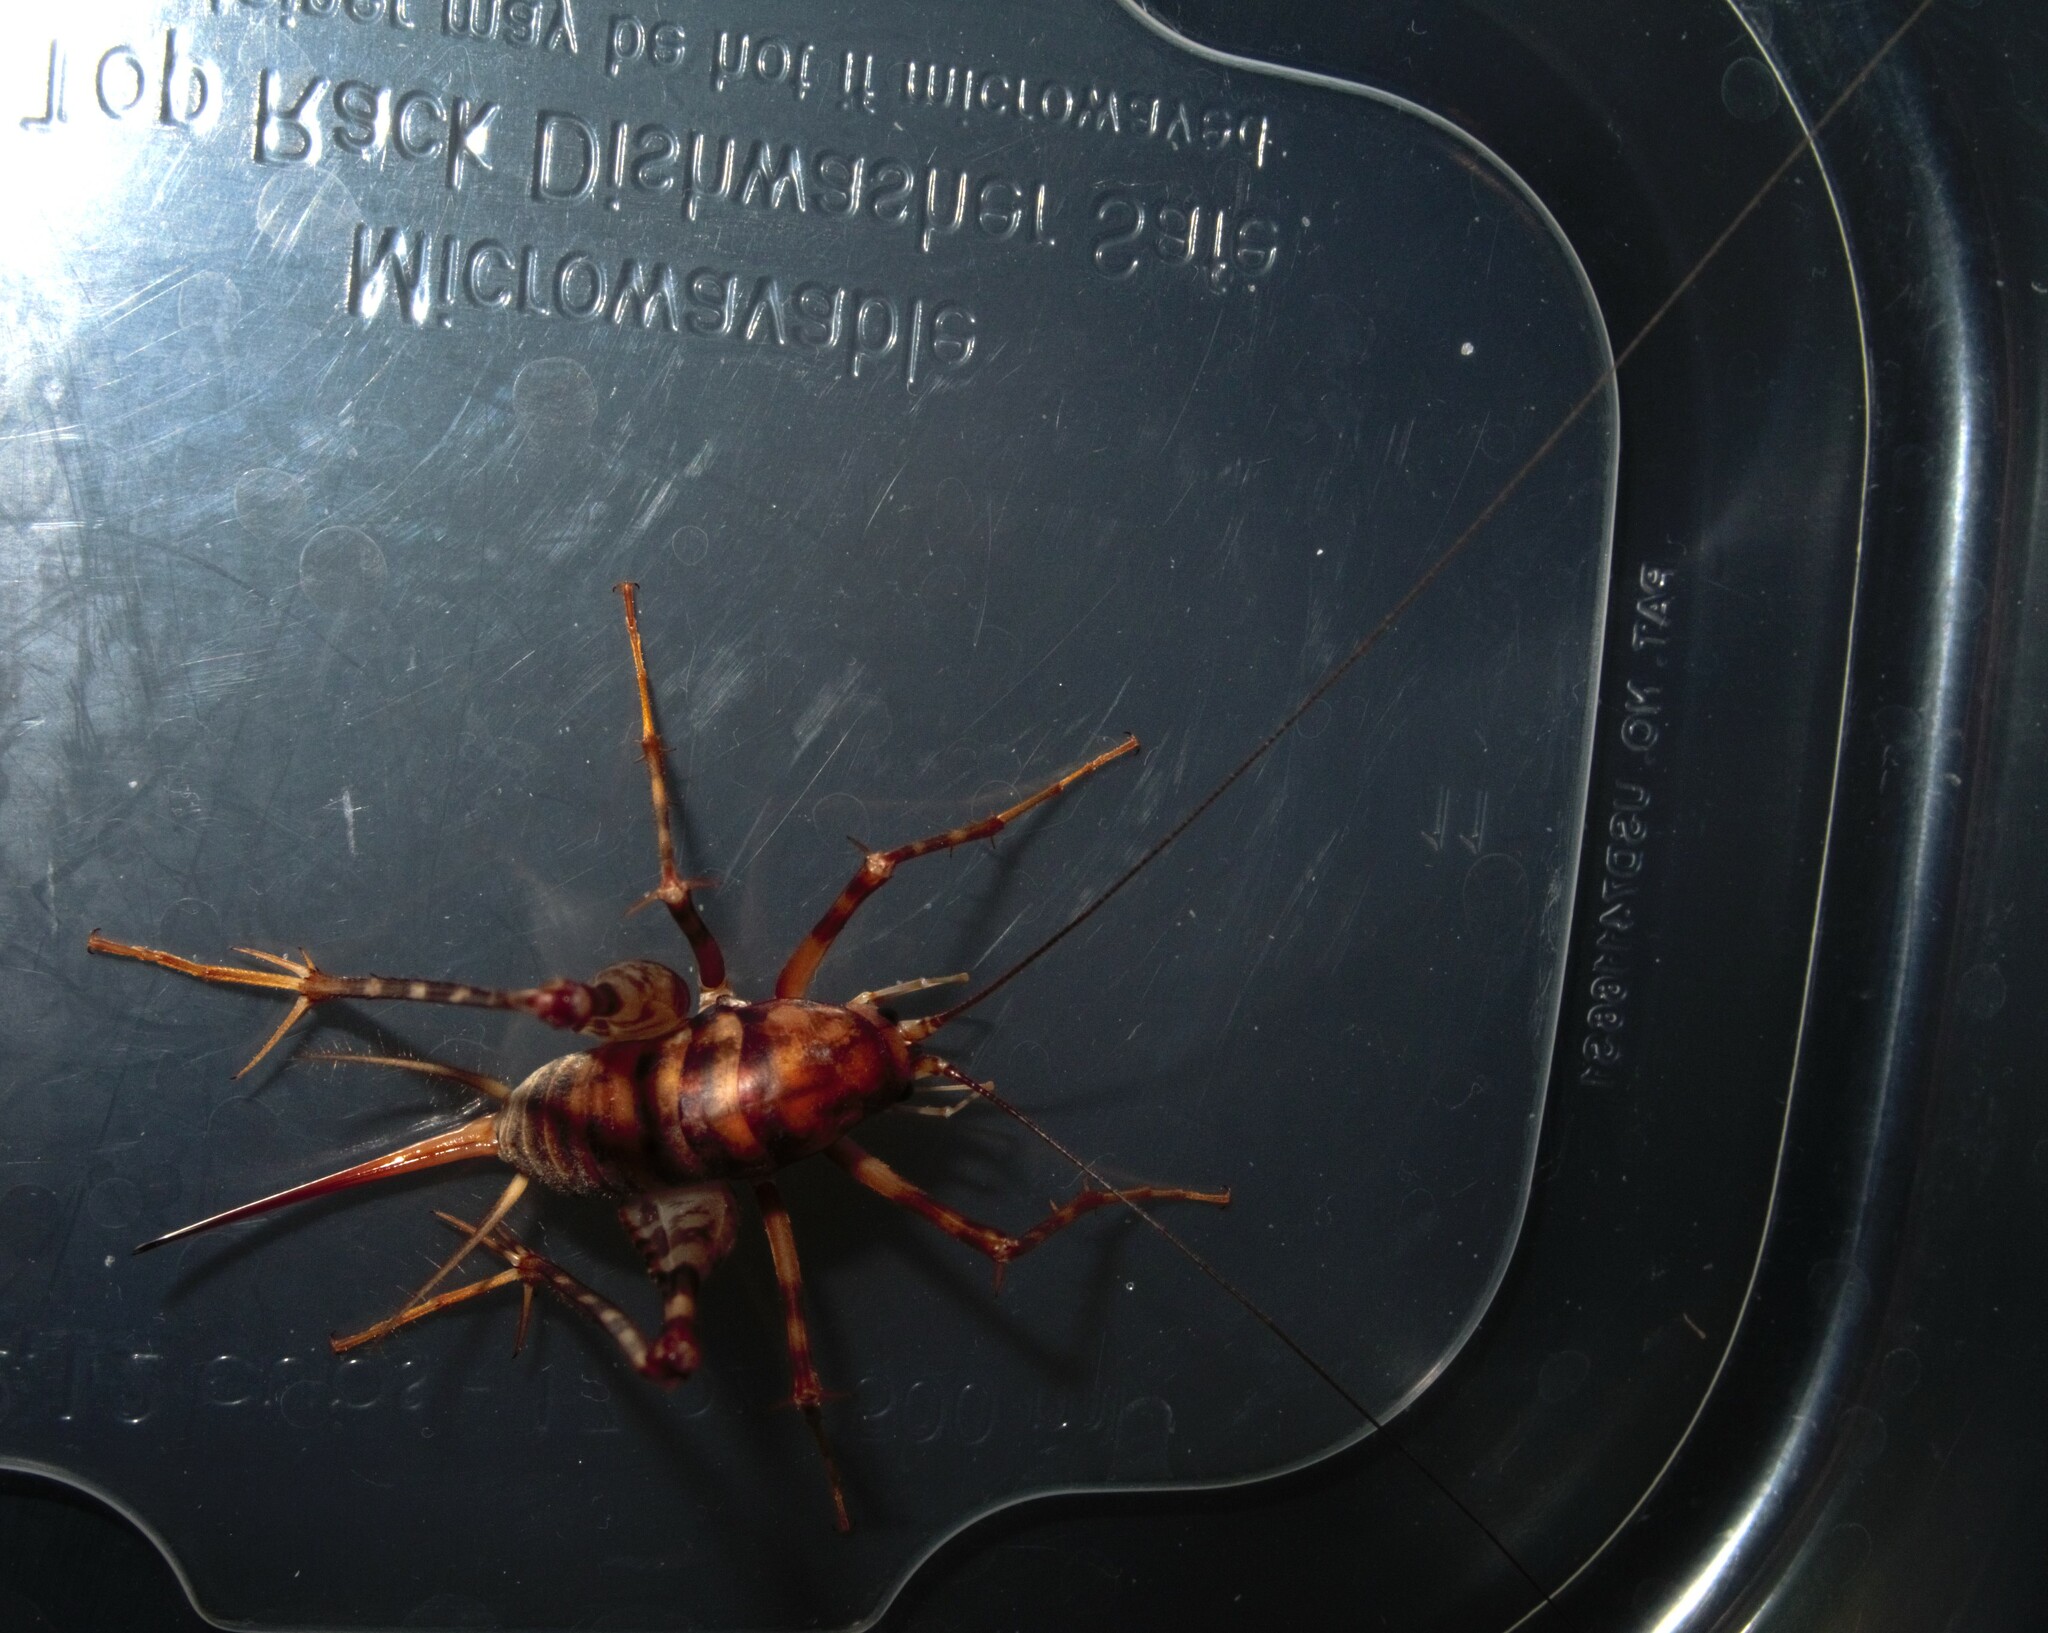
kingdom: Animalia
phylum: Arthropoda
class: Insecta
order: Orthoptera
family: Rhaphidophoridae
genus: Tachycines
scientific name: Tachycines asynamorus
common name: Greenhouse camel cricket
